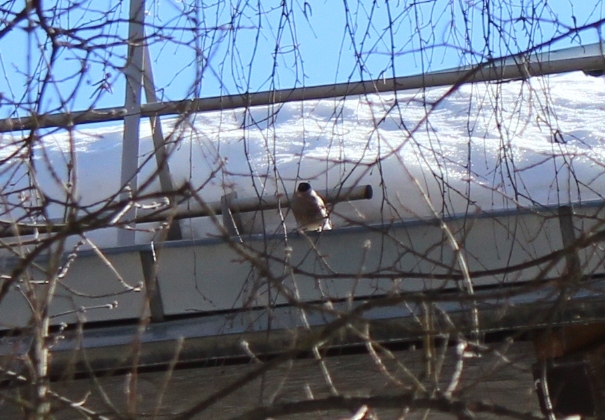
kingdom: Animalia
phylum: Chordata
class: Aves
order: Passeriformes
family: Fringillidae
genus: Pyrrhula
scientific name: Pyrrhula pyrrhula
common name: Eurasian bullfinch
